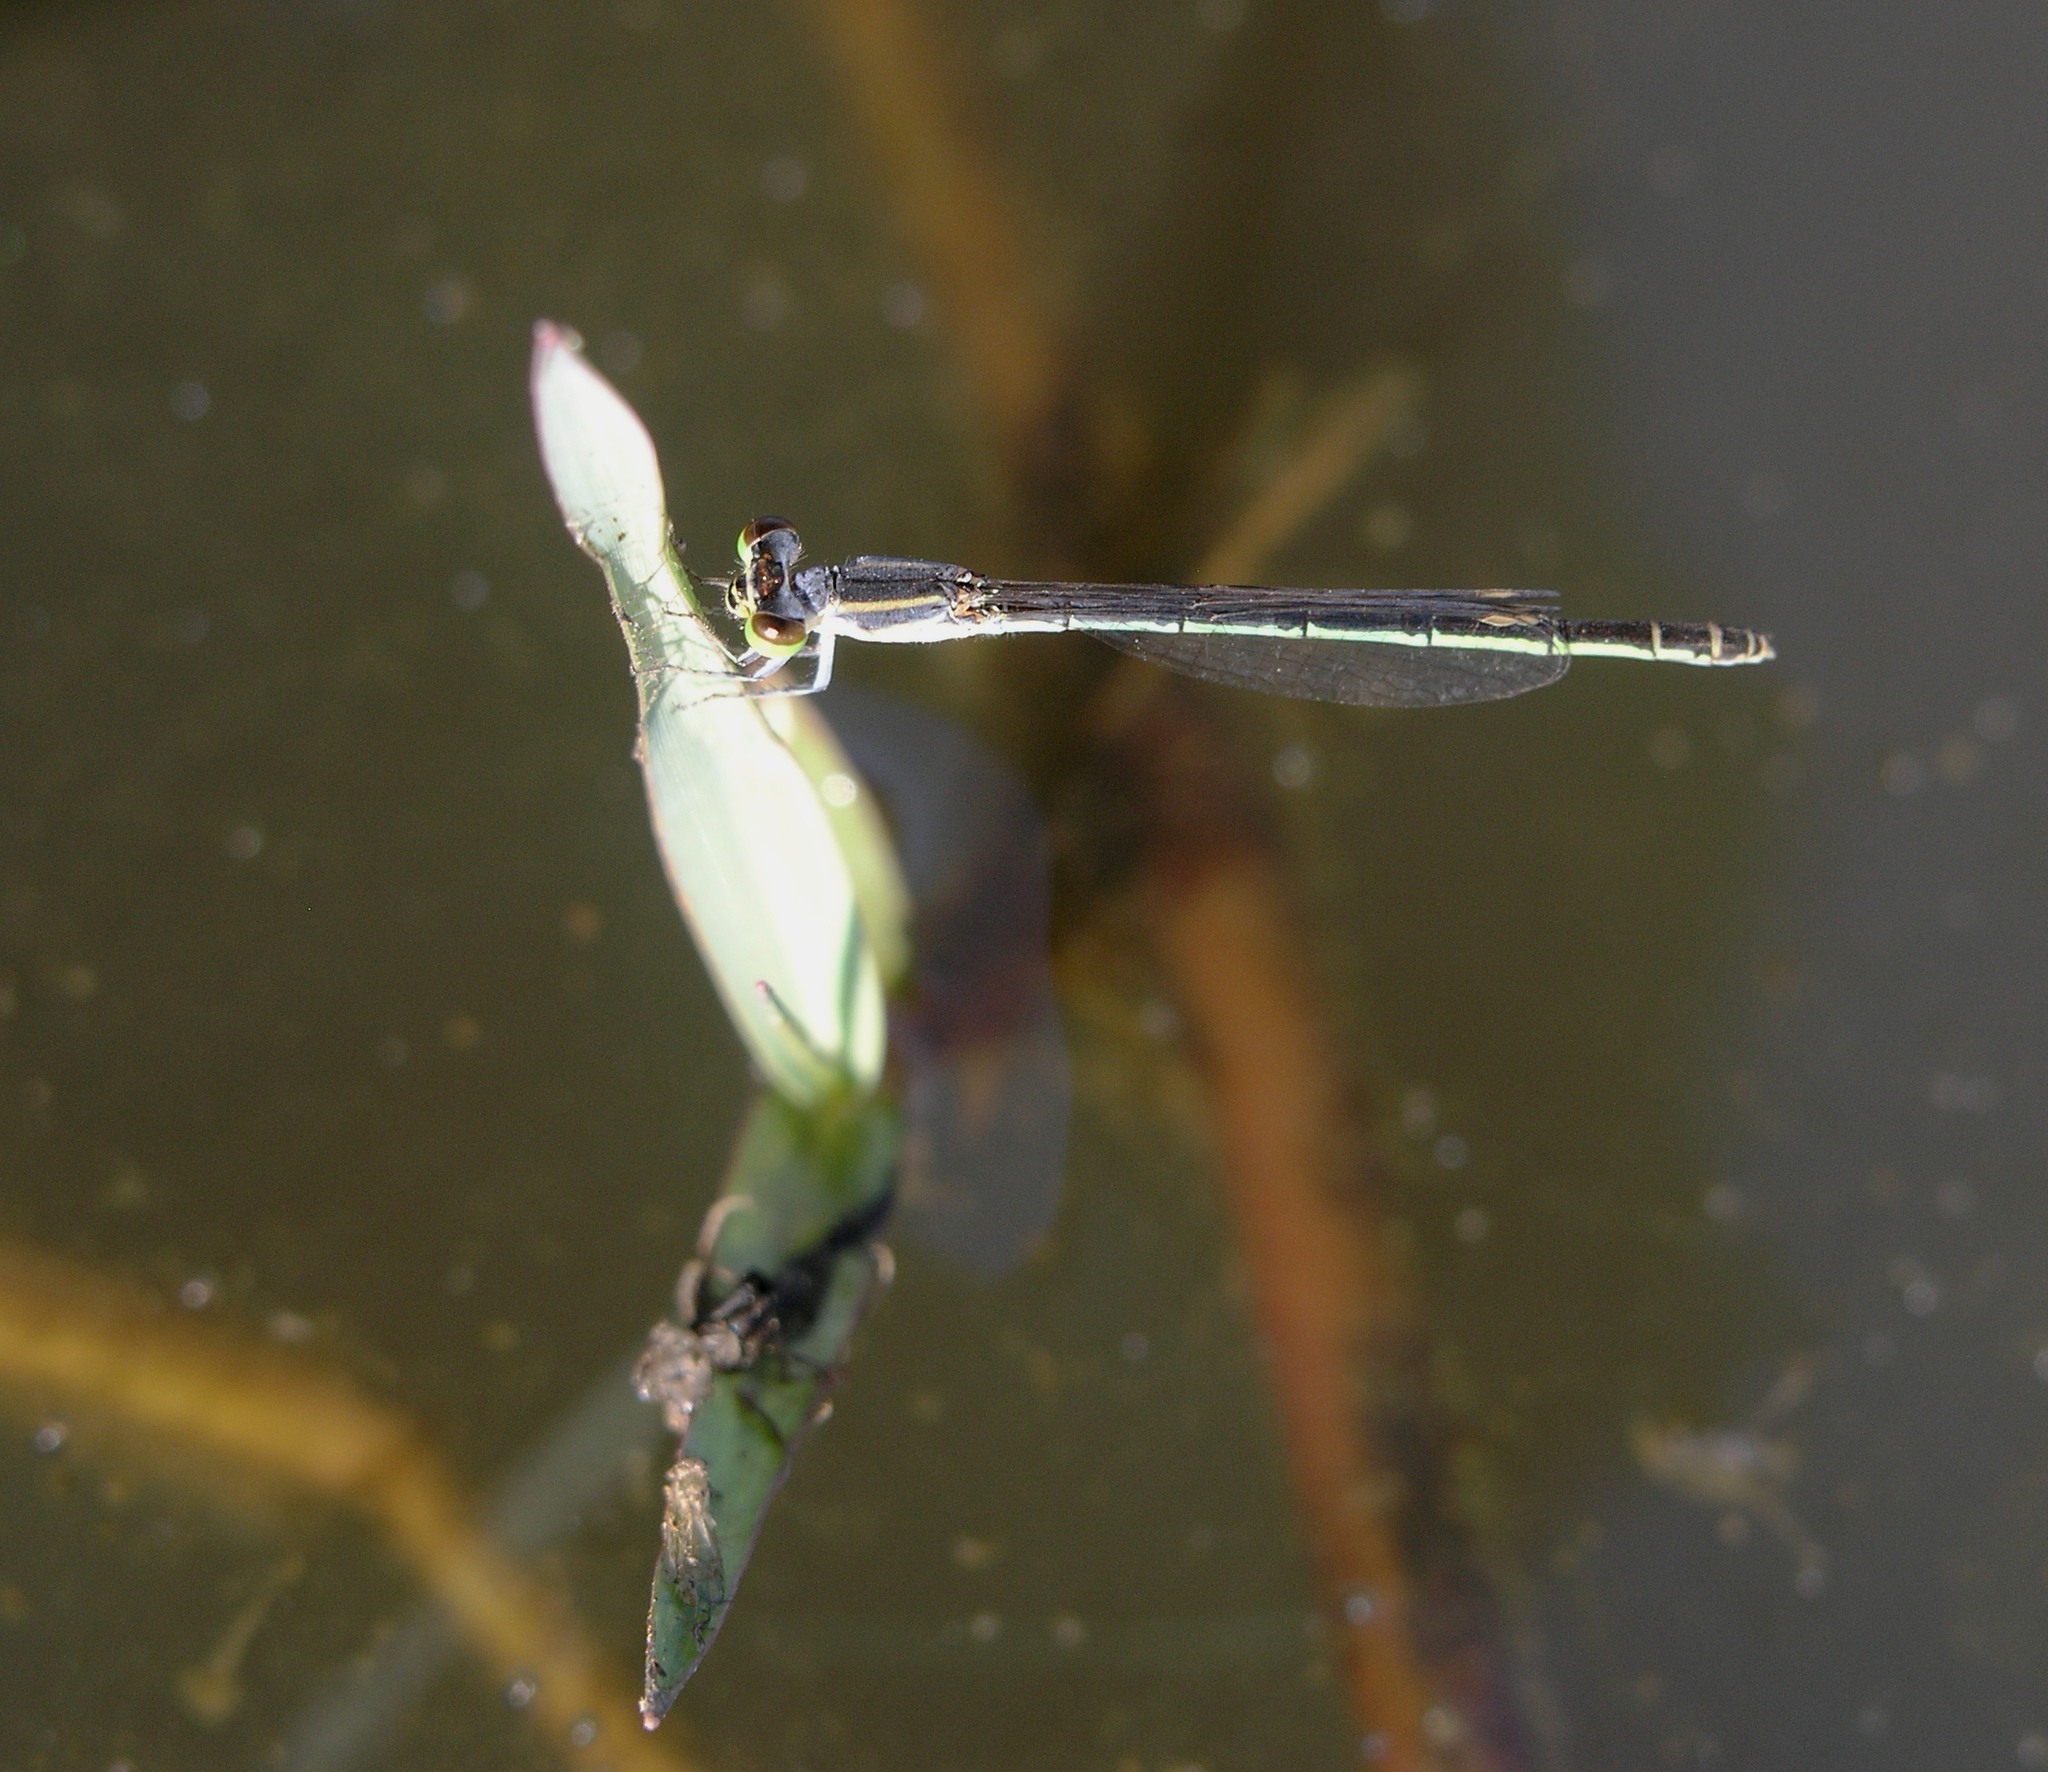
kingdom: Animalia
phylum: Arthropoda
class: Insecta
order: Odonata
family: Coenagrionidae
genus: Agriocnemis
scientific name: Agriocnemis minima
